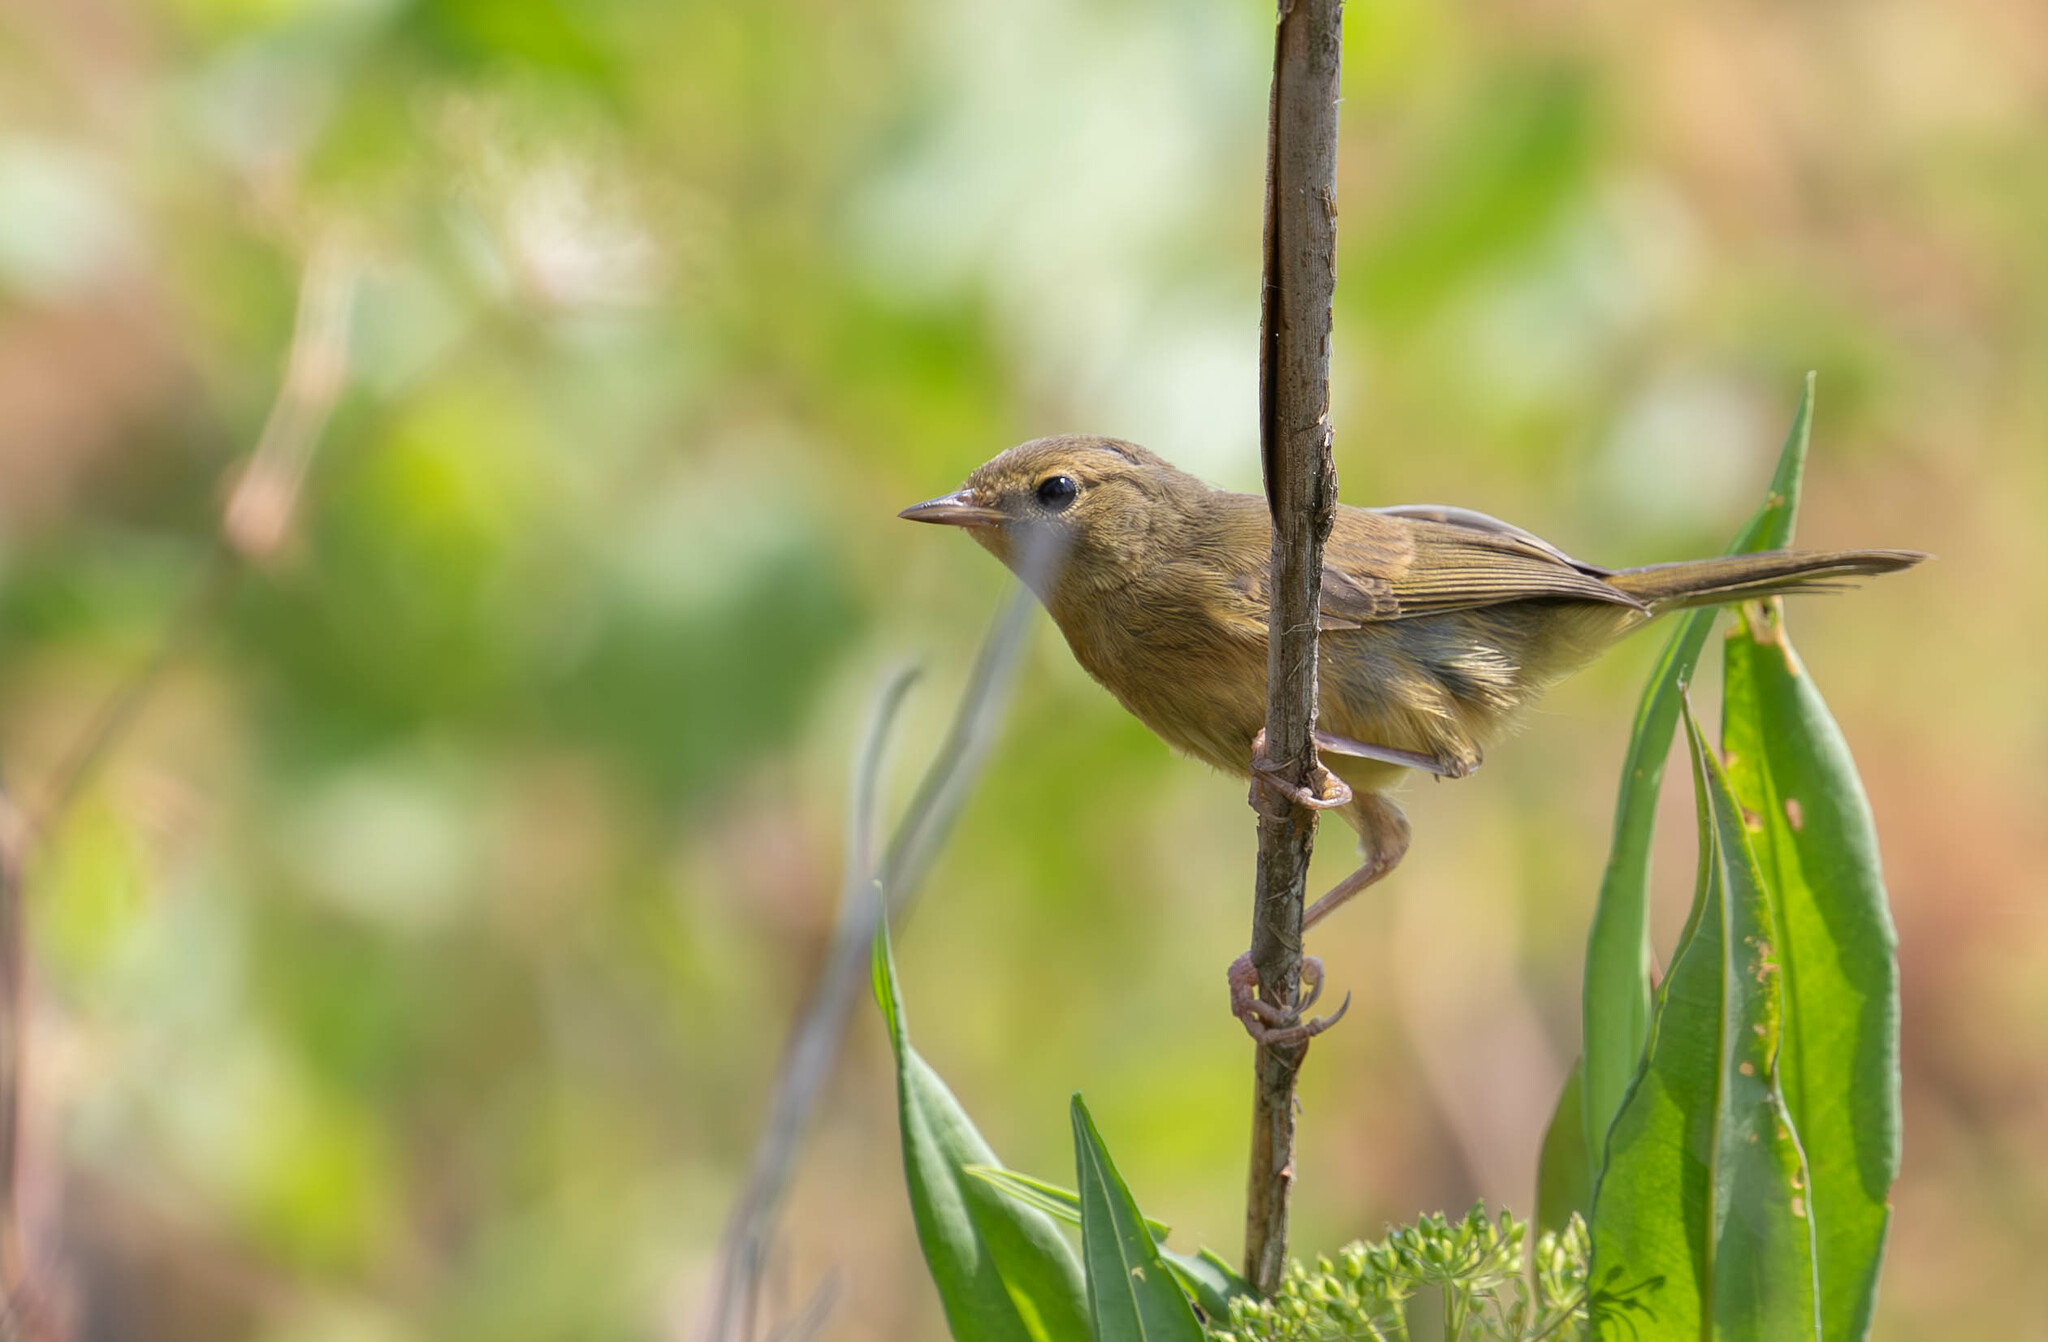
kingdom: Animalia
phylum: Chordata
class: Aves
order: Passeriformes
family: Parulidae
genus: Geothlypis
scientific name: Geothlypis trichas
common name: Common yellowthroat
